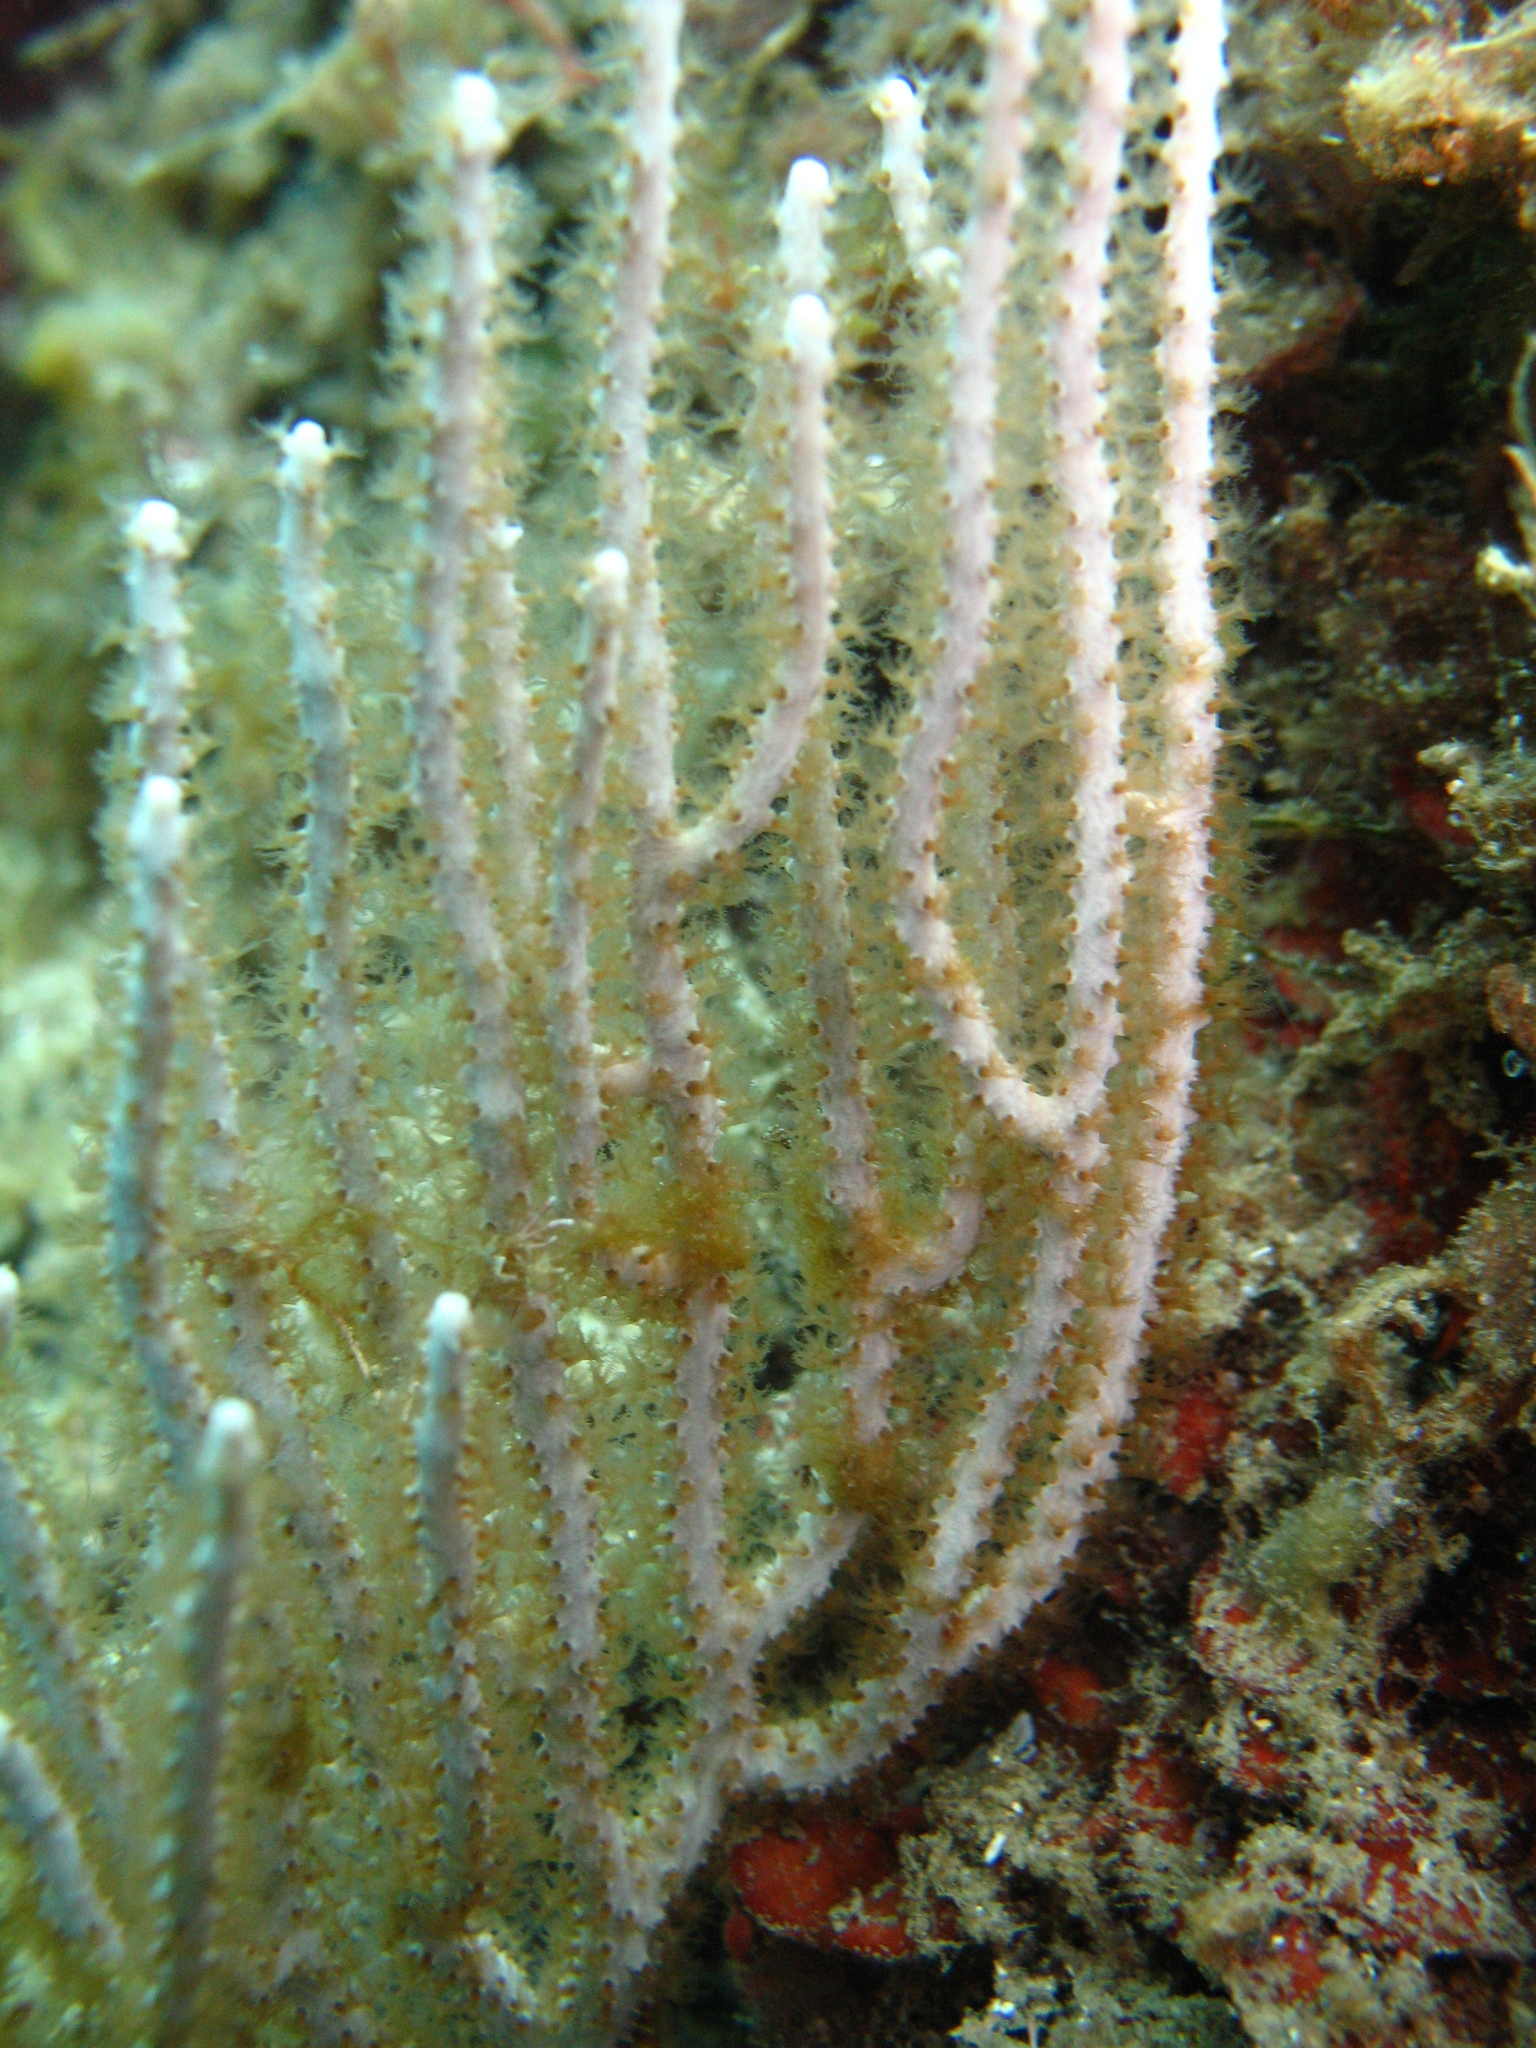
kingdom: Animalia
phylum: Cnidaria
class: Anthozoa
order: Malacalcyonacea
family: Eunicellidae
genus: Eunicella
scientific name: Eunicella singularis
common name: White horny coral
